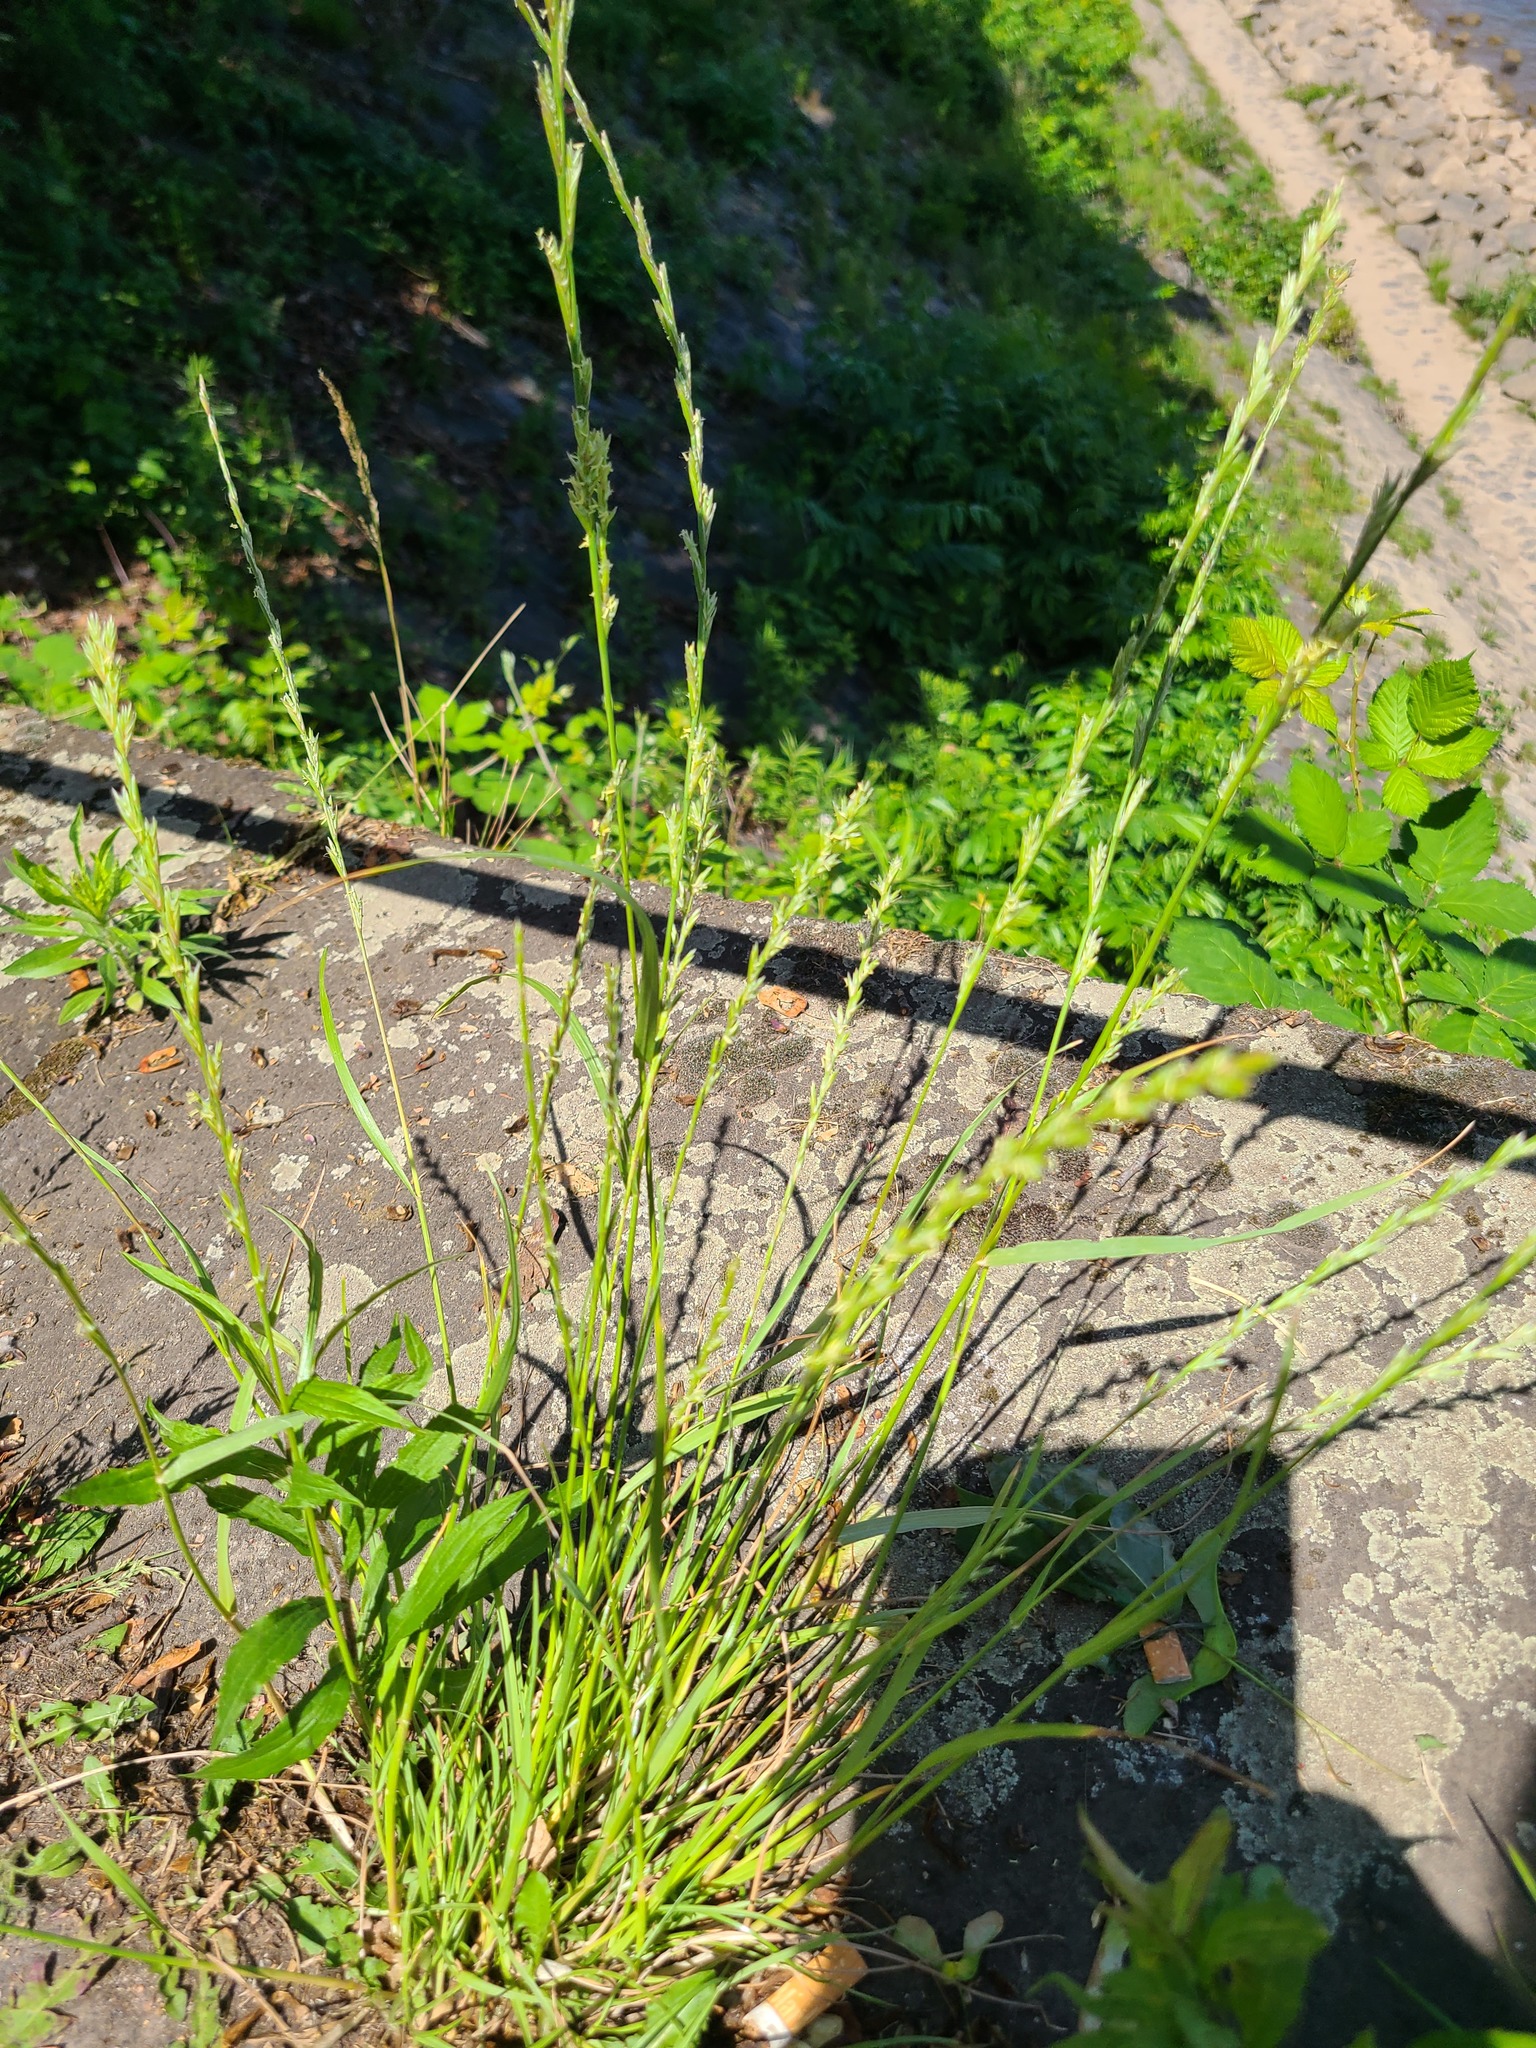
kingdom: Plantae
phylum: Tracheophyta
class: Liliopsida
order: Poales
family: Poaceae
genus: Lolium
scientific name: Lolium perenne
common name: Perennial ryegrass
